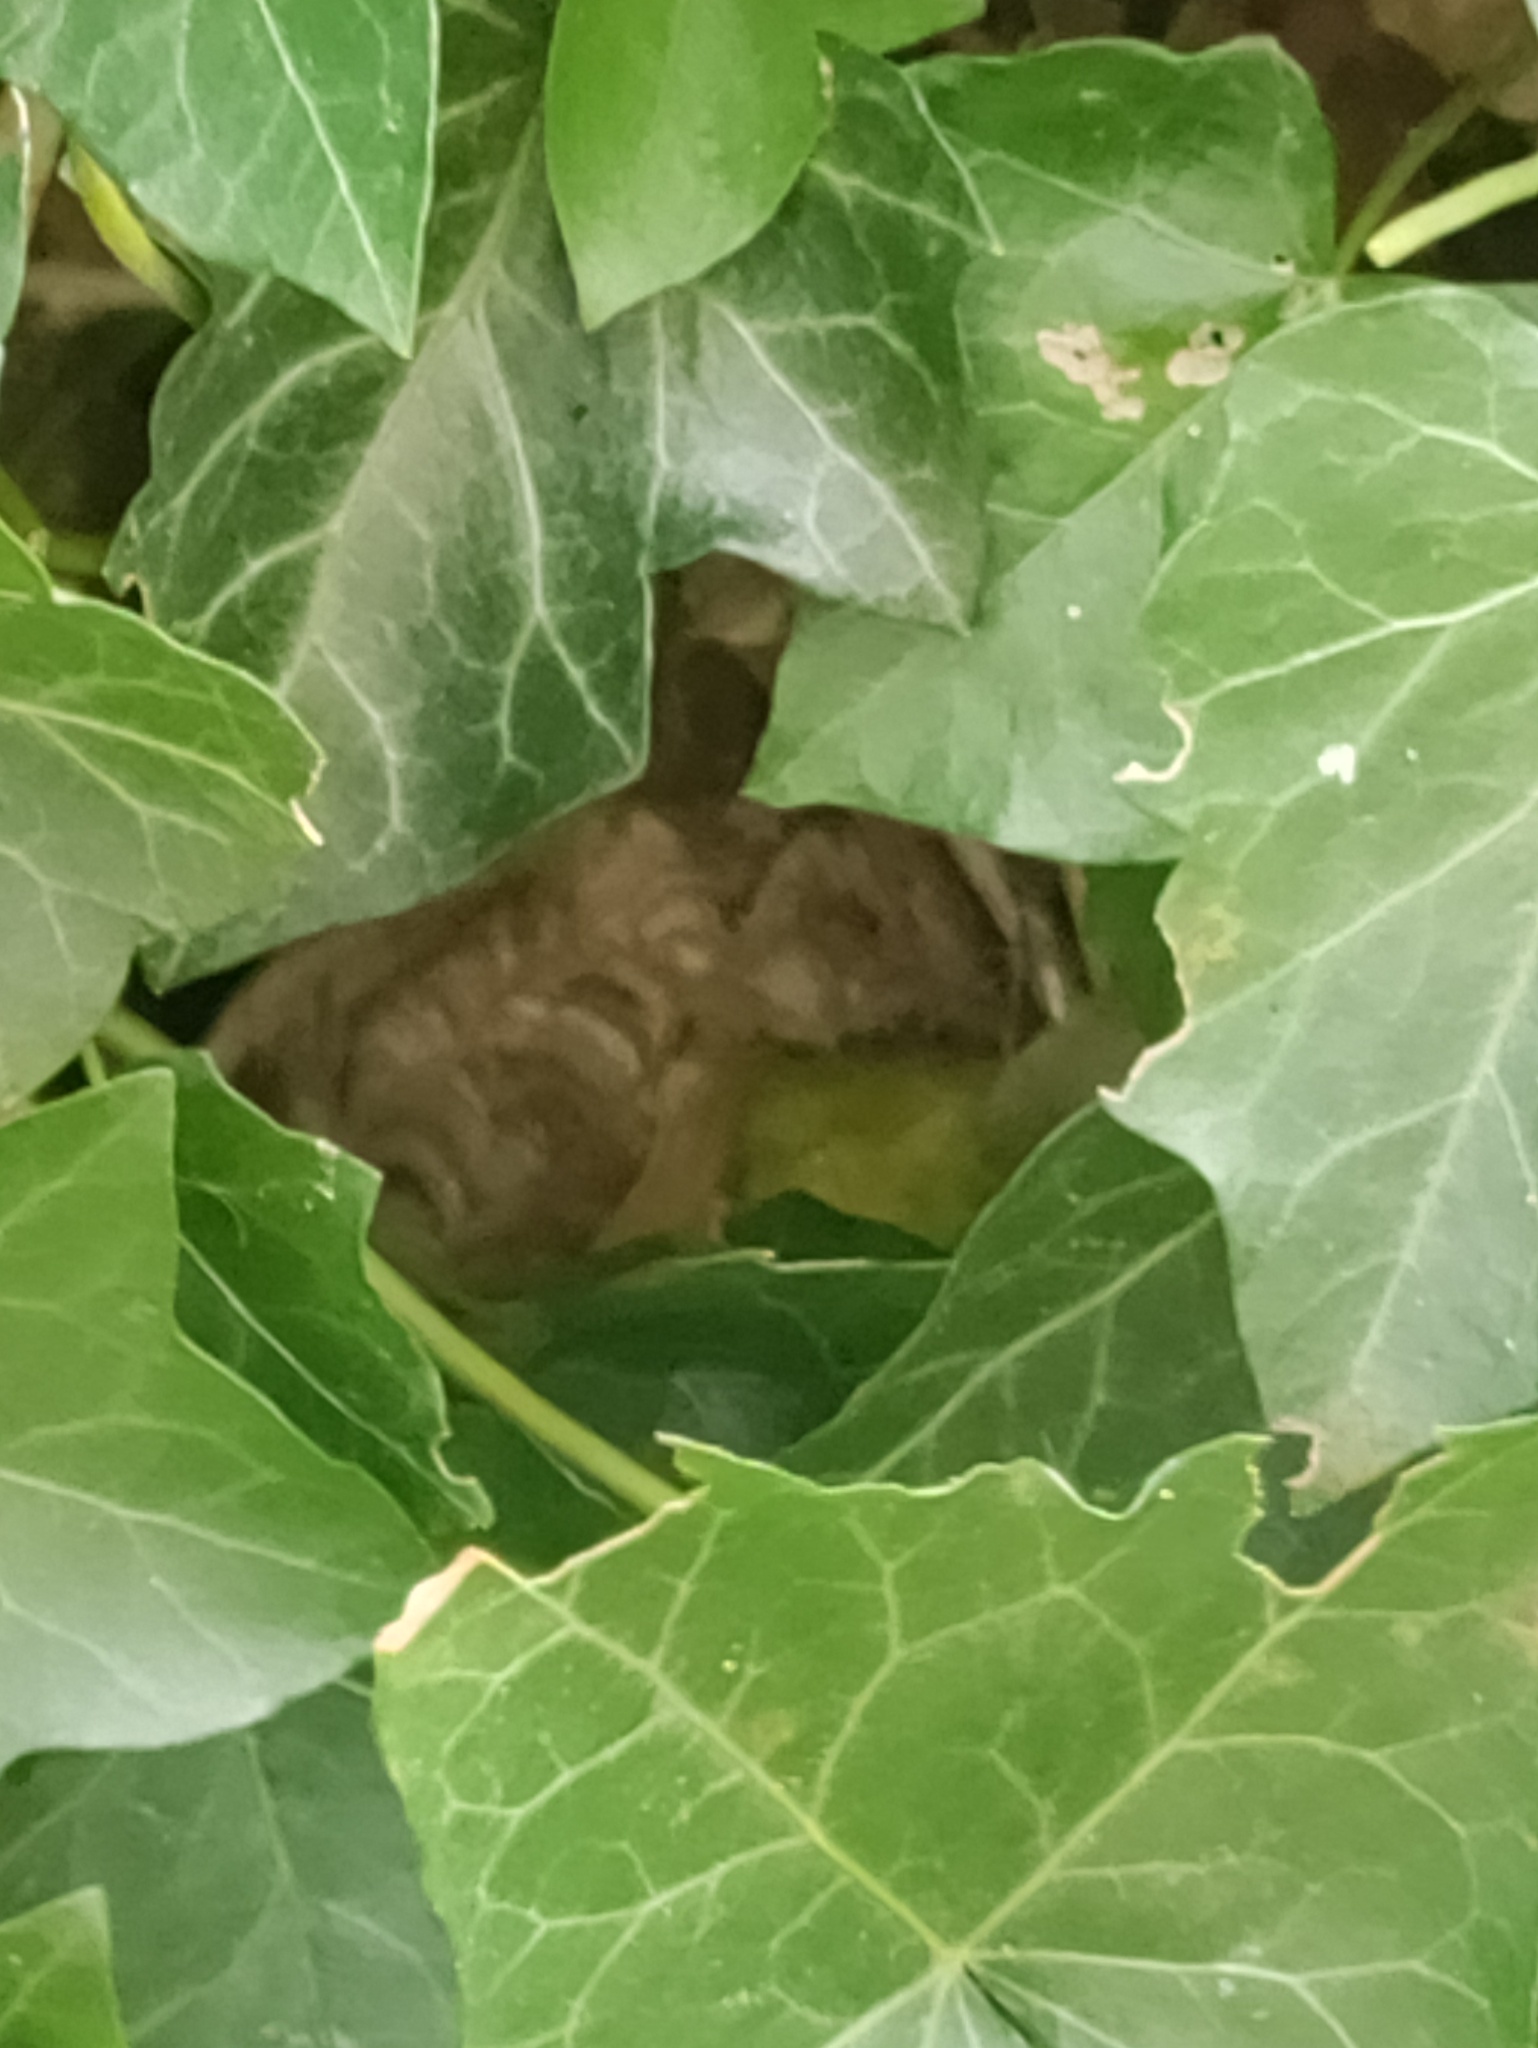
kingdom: Animalia
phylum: Arthropoda
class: Insecta
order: Hymenoptera
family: Vespidae
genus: Vespa
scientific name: Vespa velutina
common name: Asian hornet
